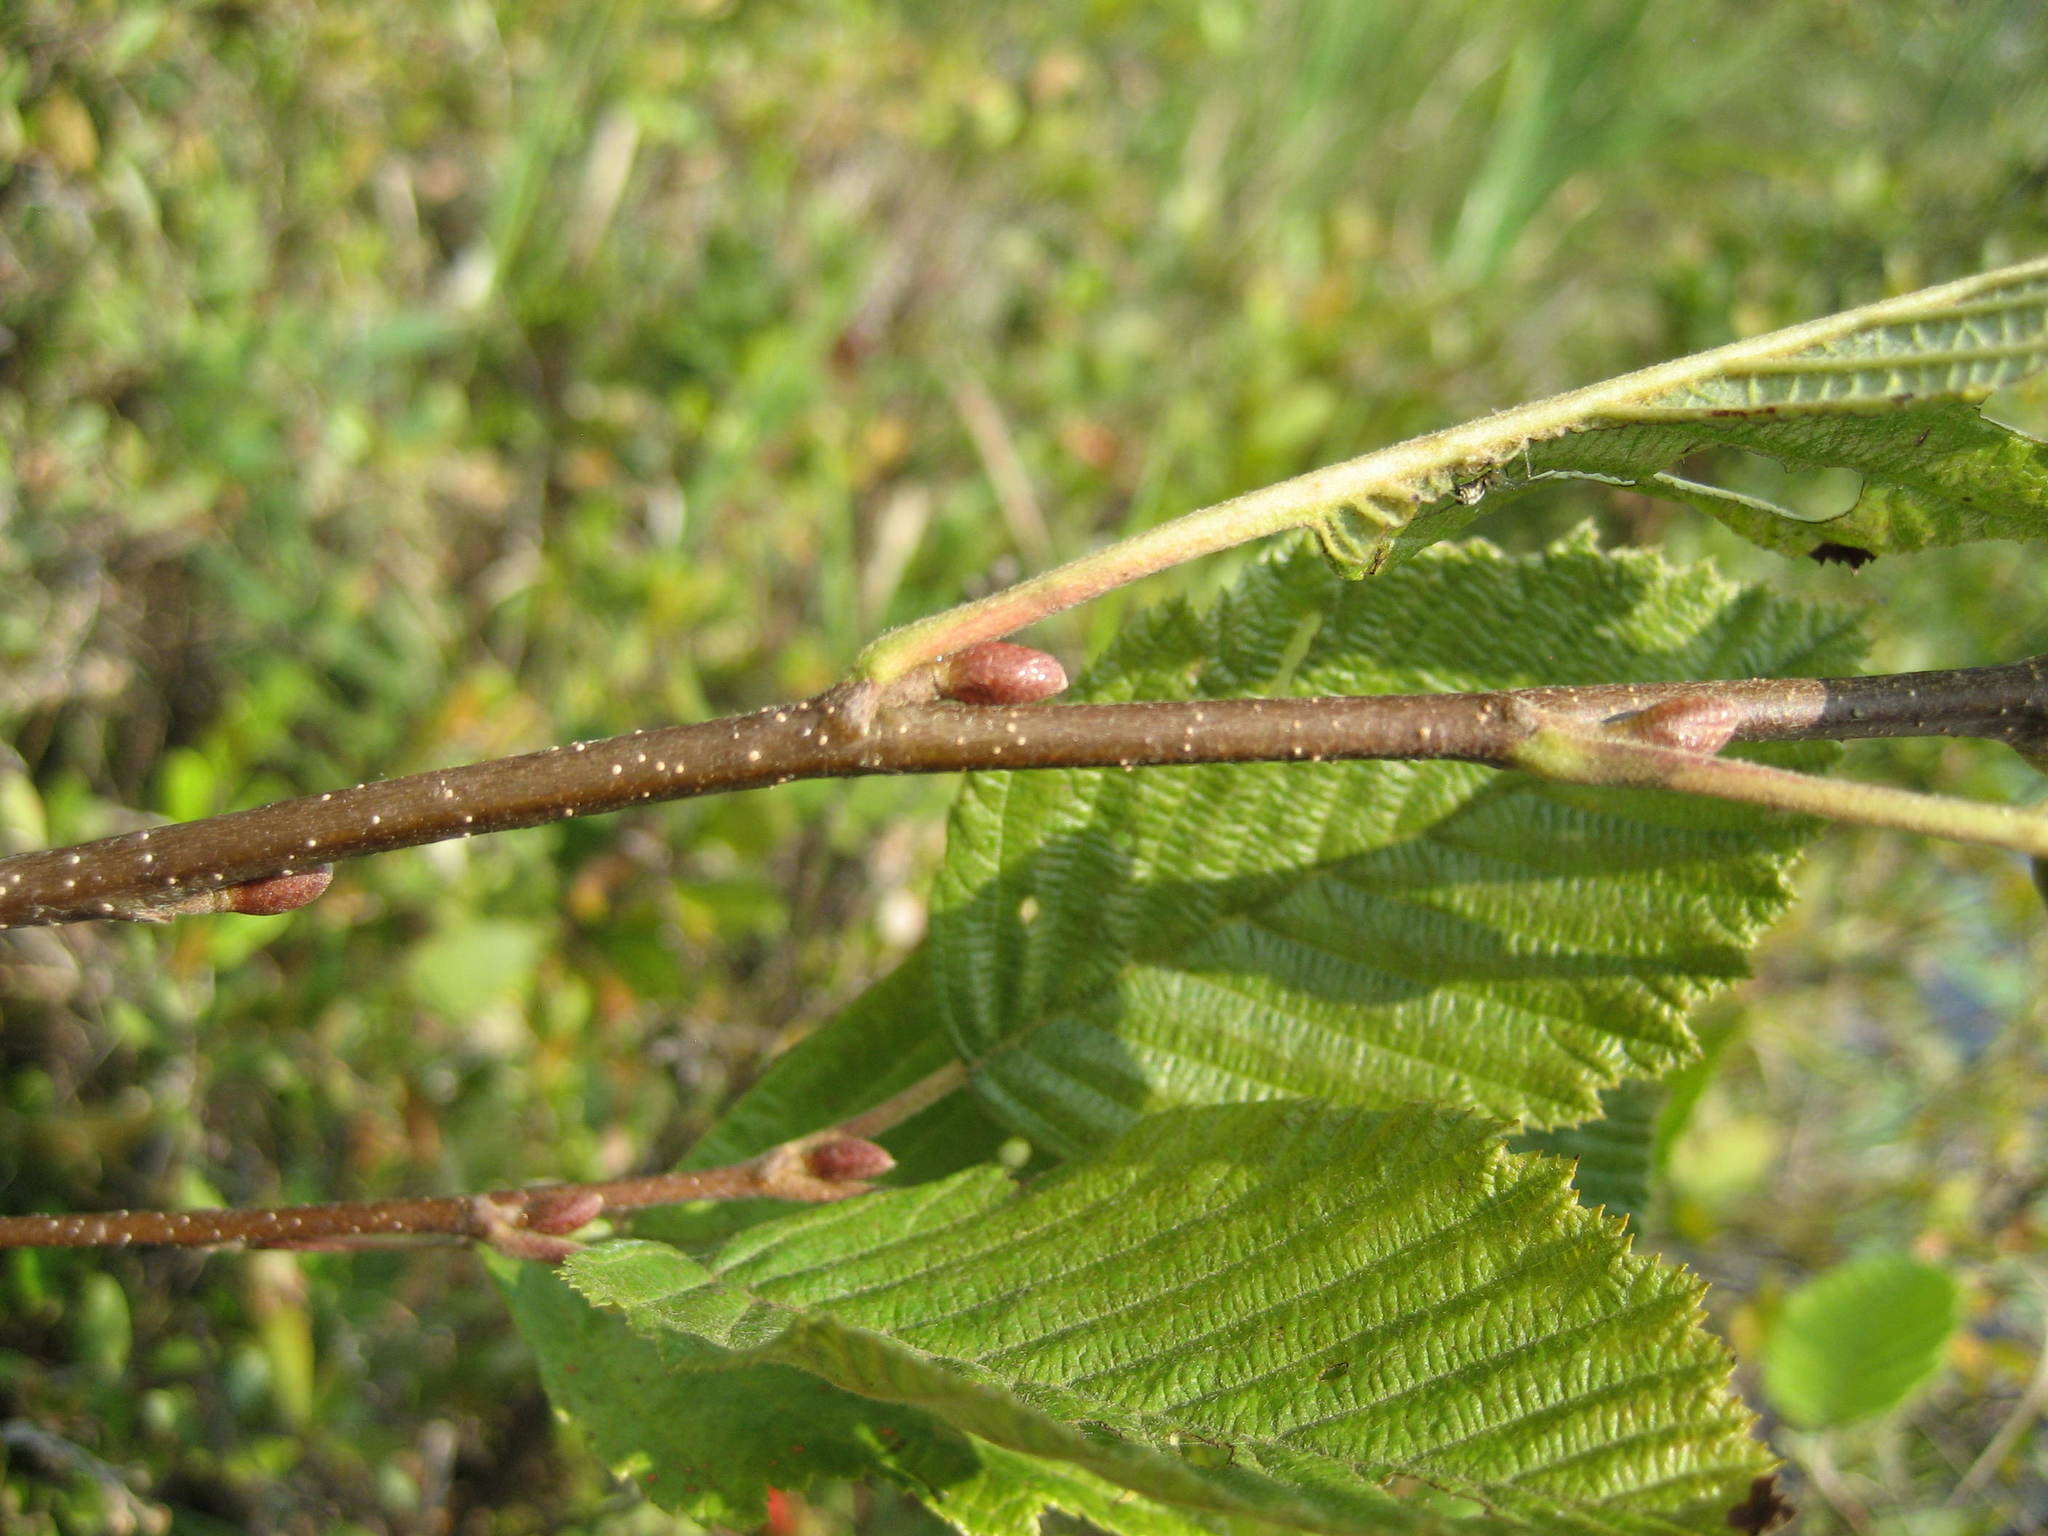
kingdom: Plantae
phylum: Tracheophyta
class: Magnoliopsida
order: Fagales
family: Betulaceae
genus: Alnus
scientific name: Alnus incana
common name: Grey alder
